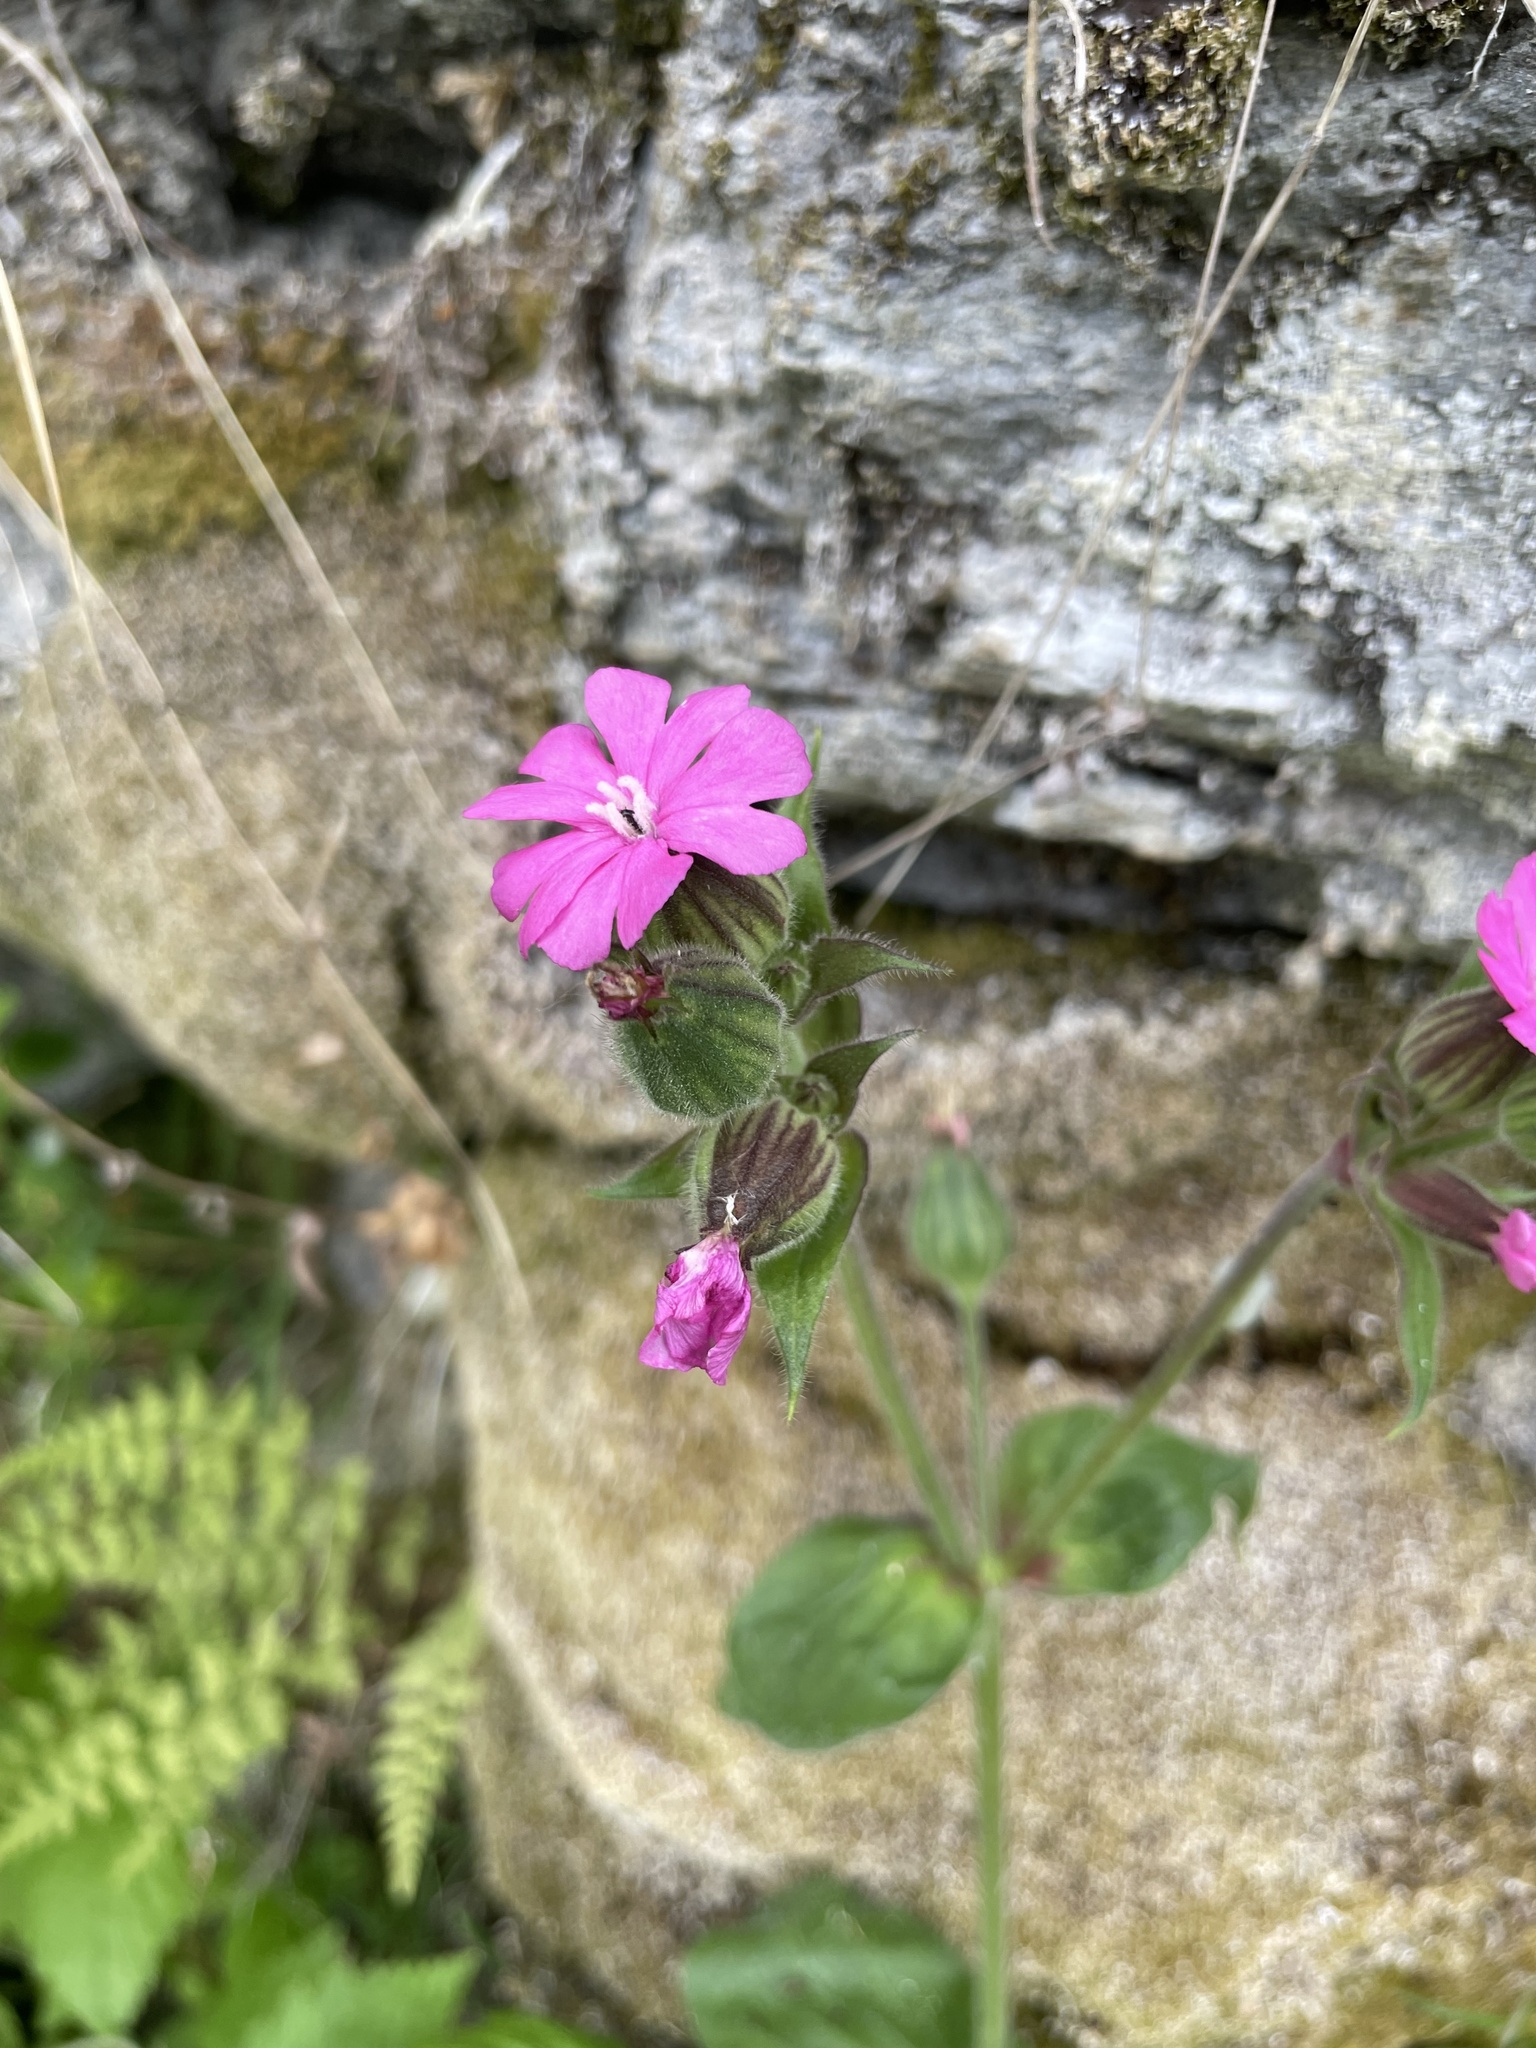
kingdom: Plantae
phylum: Tracheophyta
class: Magnoliopsida
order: Caryophyllales
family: Caryophyllaceae
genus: Silene
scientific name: Silene dioica
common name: Red campion
